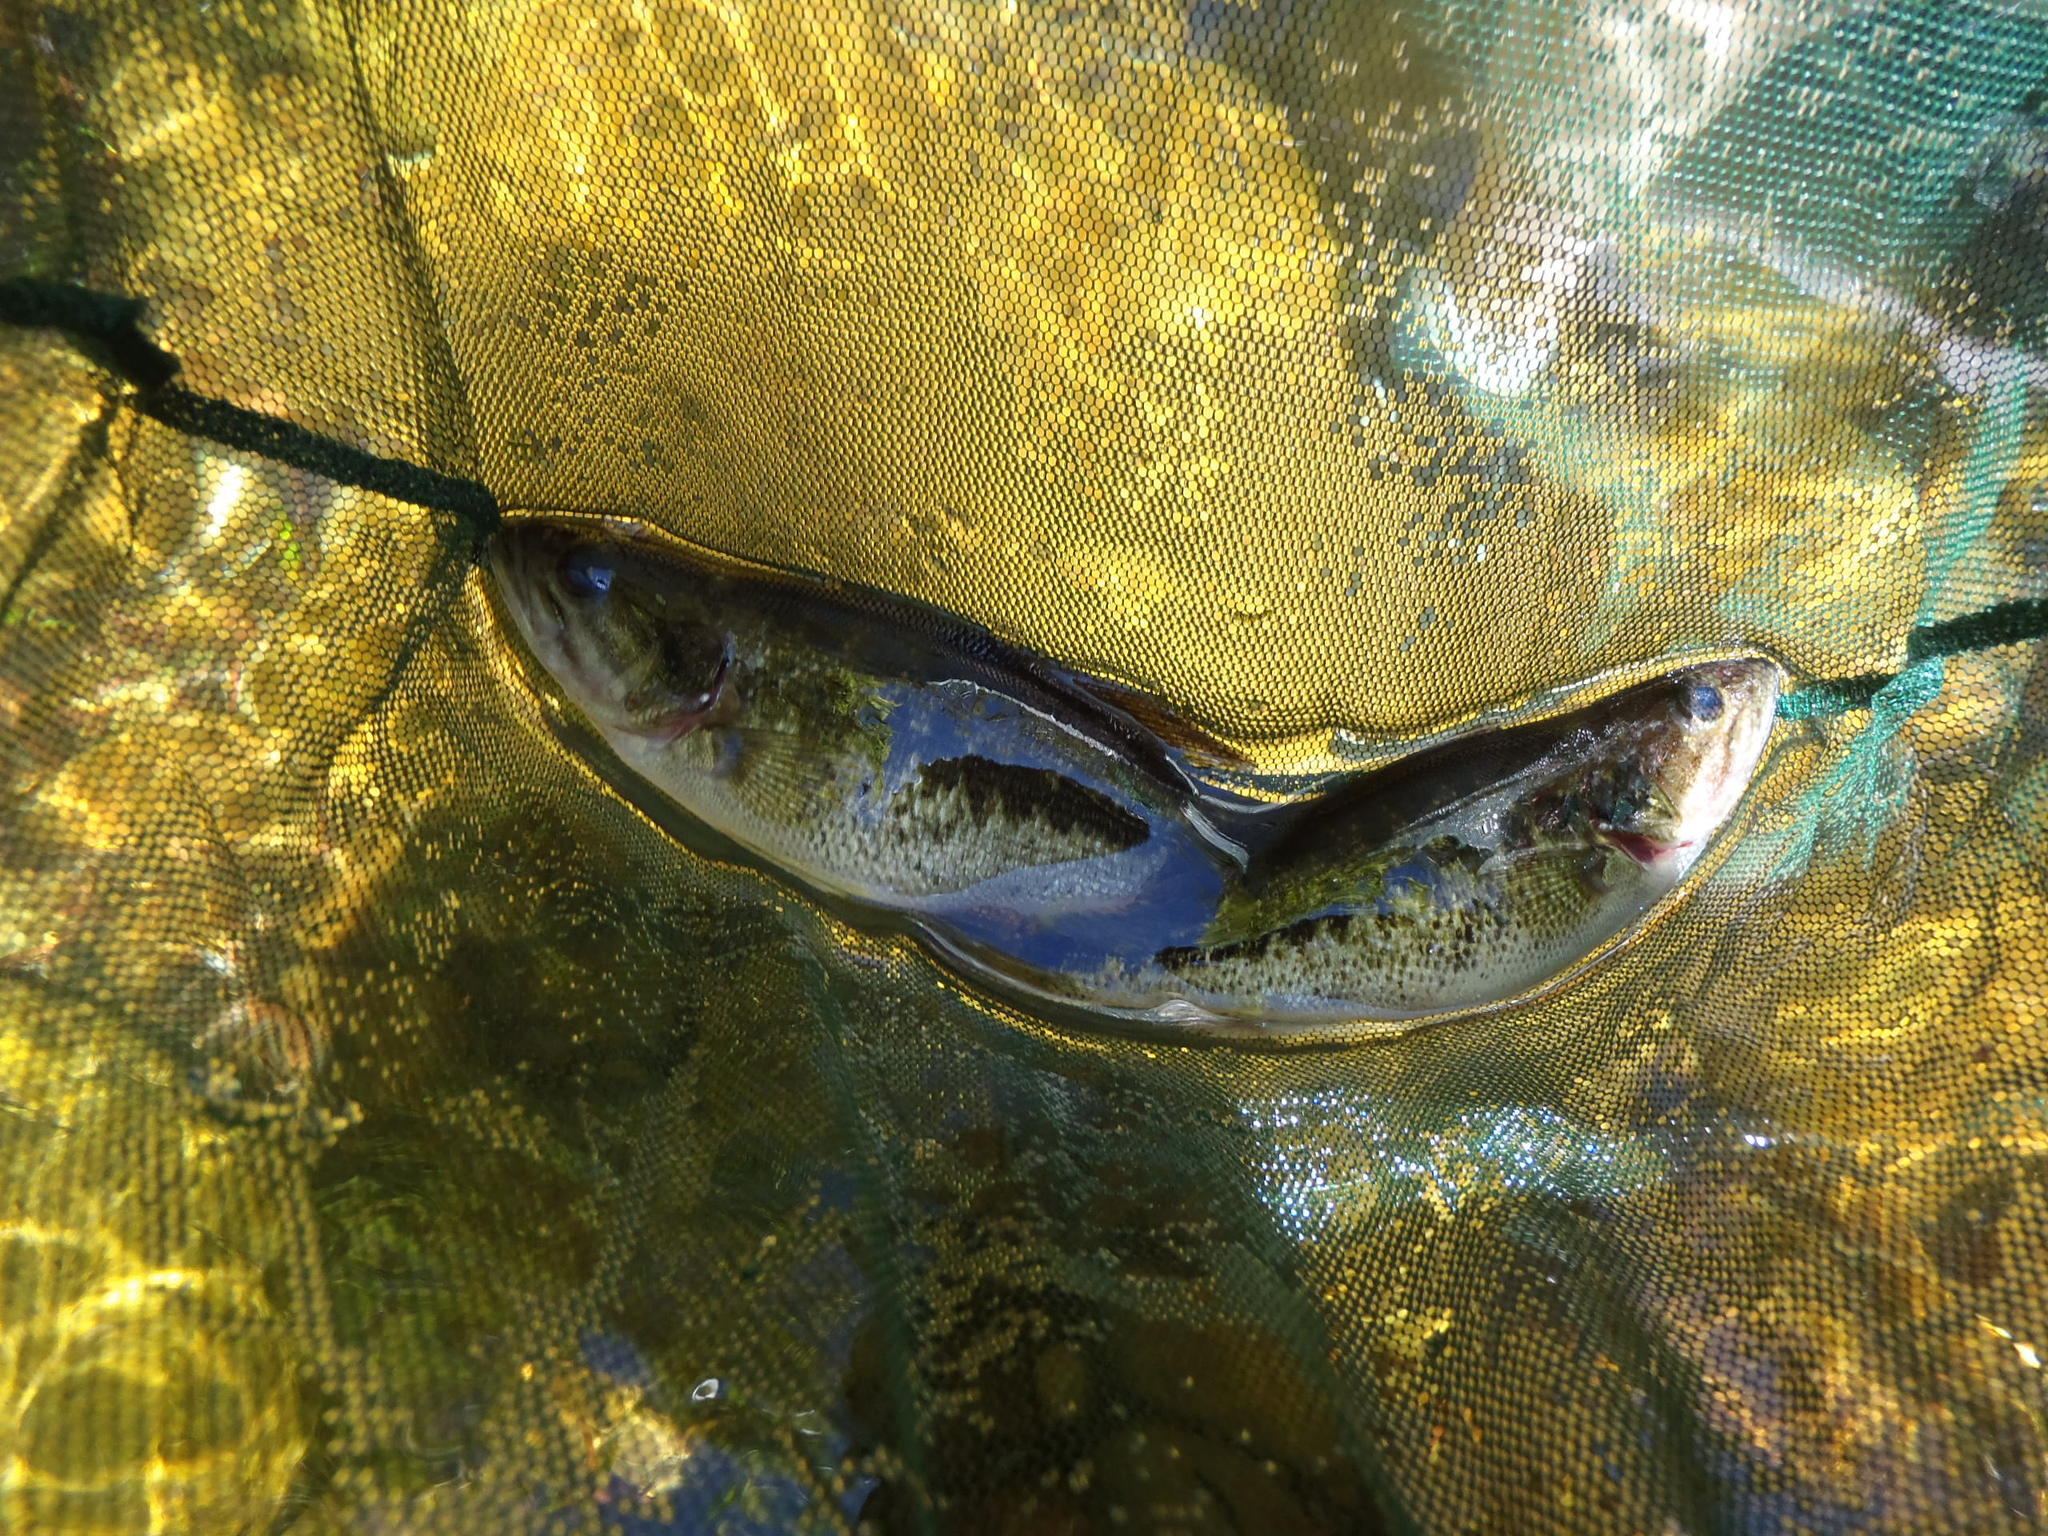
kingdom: Animalia
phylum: Chordata
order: Perciformes
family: Centrarchidae
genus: Micropterus
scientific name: Micropterus punctulatus
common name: Spotted bass
